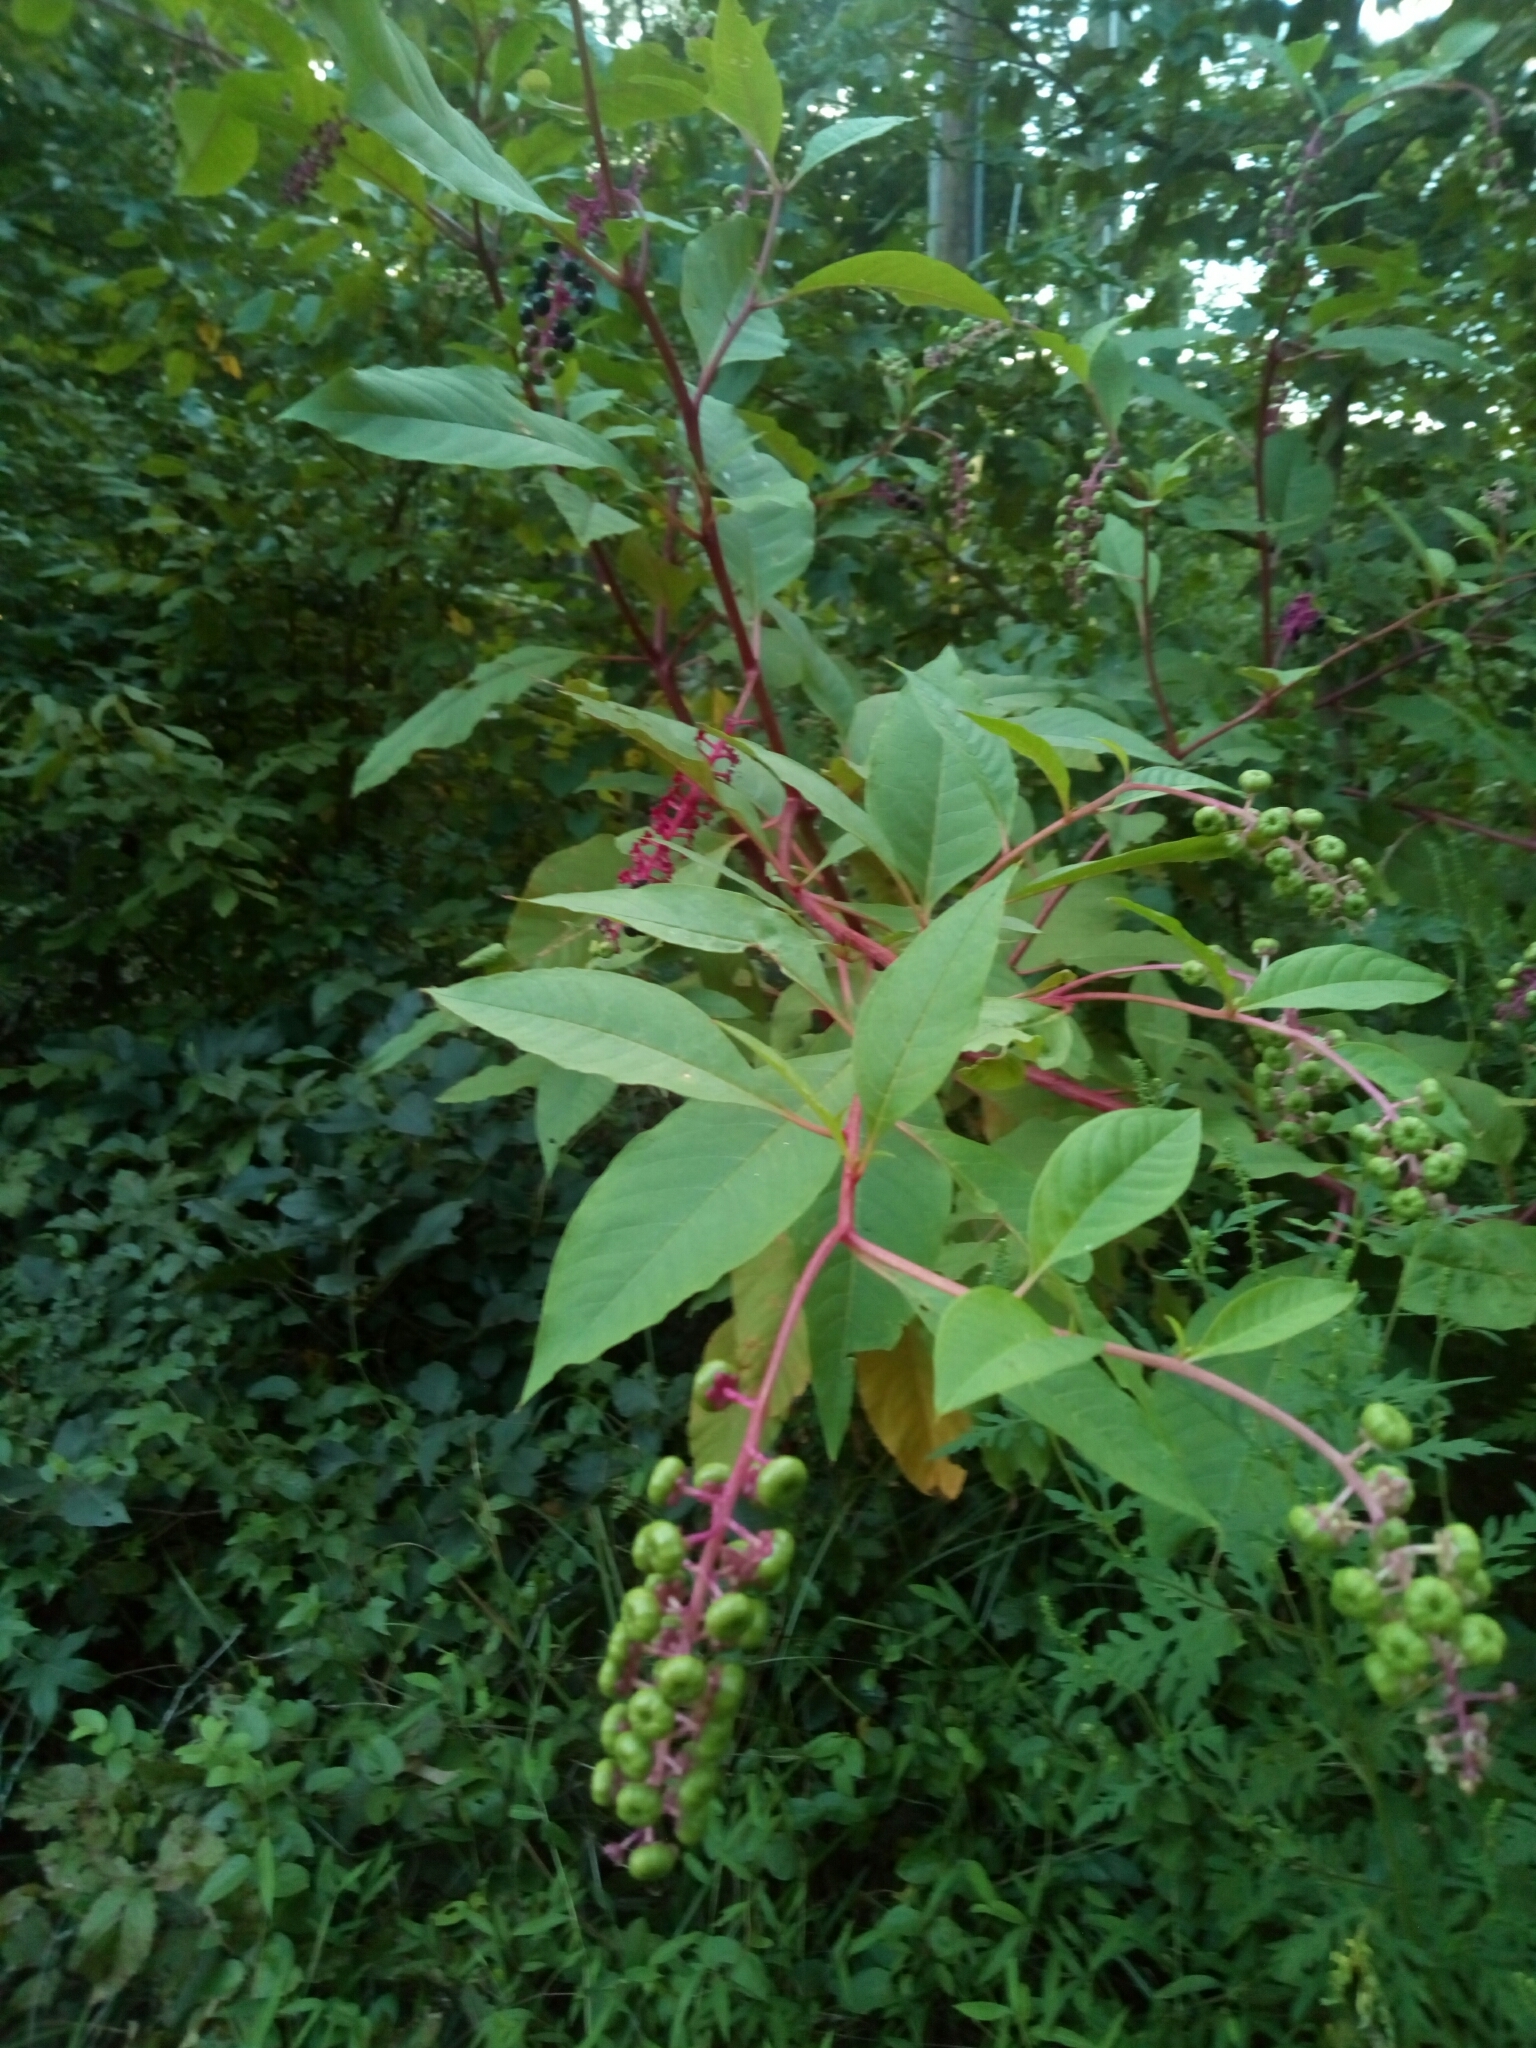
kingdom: Plantae
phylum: Tracheophyta
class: Magnoliopsida
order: Caryophyllales
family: Phytolaccaceae
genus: Phytolacca
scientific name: Phytolacca americana
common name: American pokeweed
